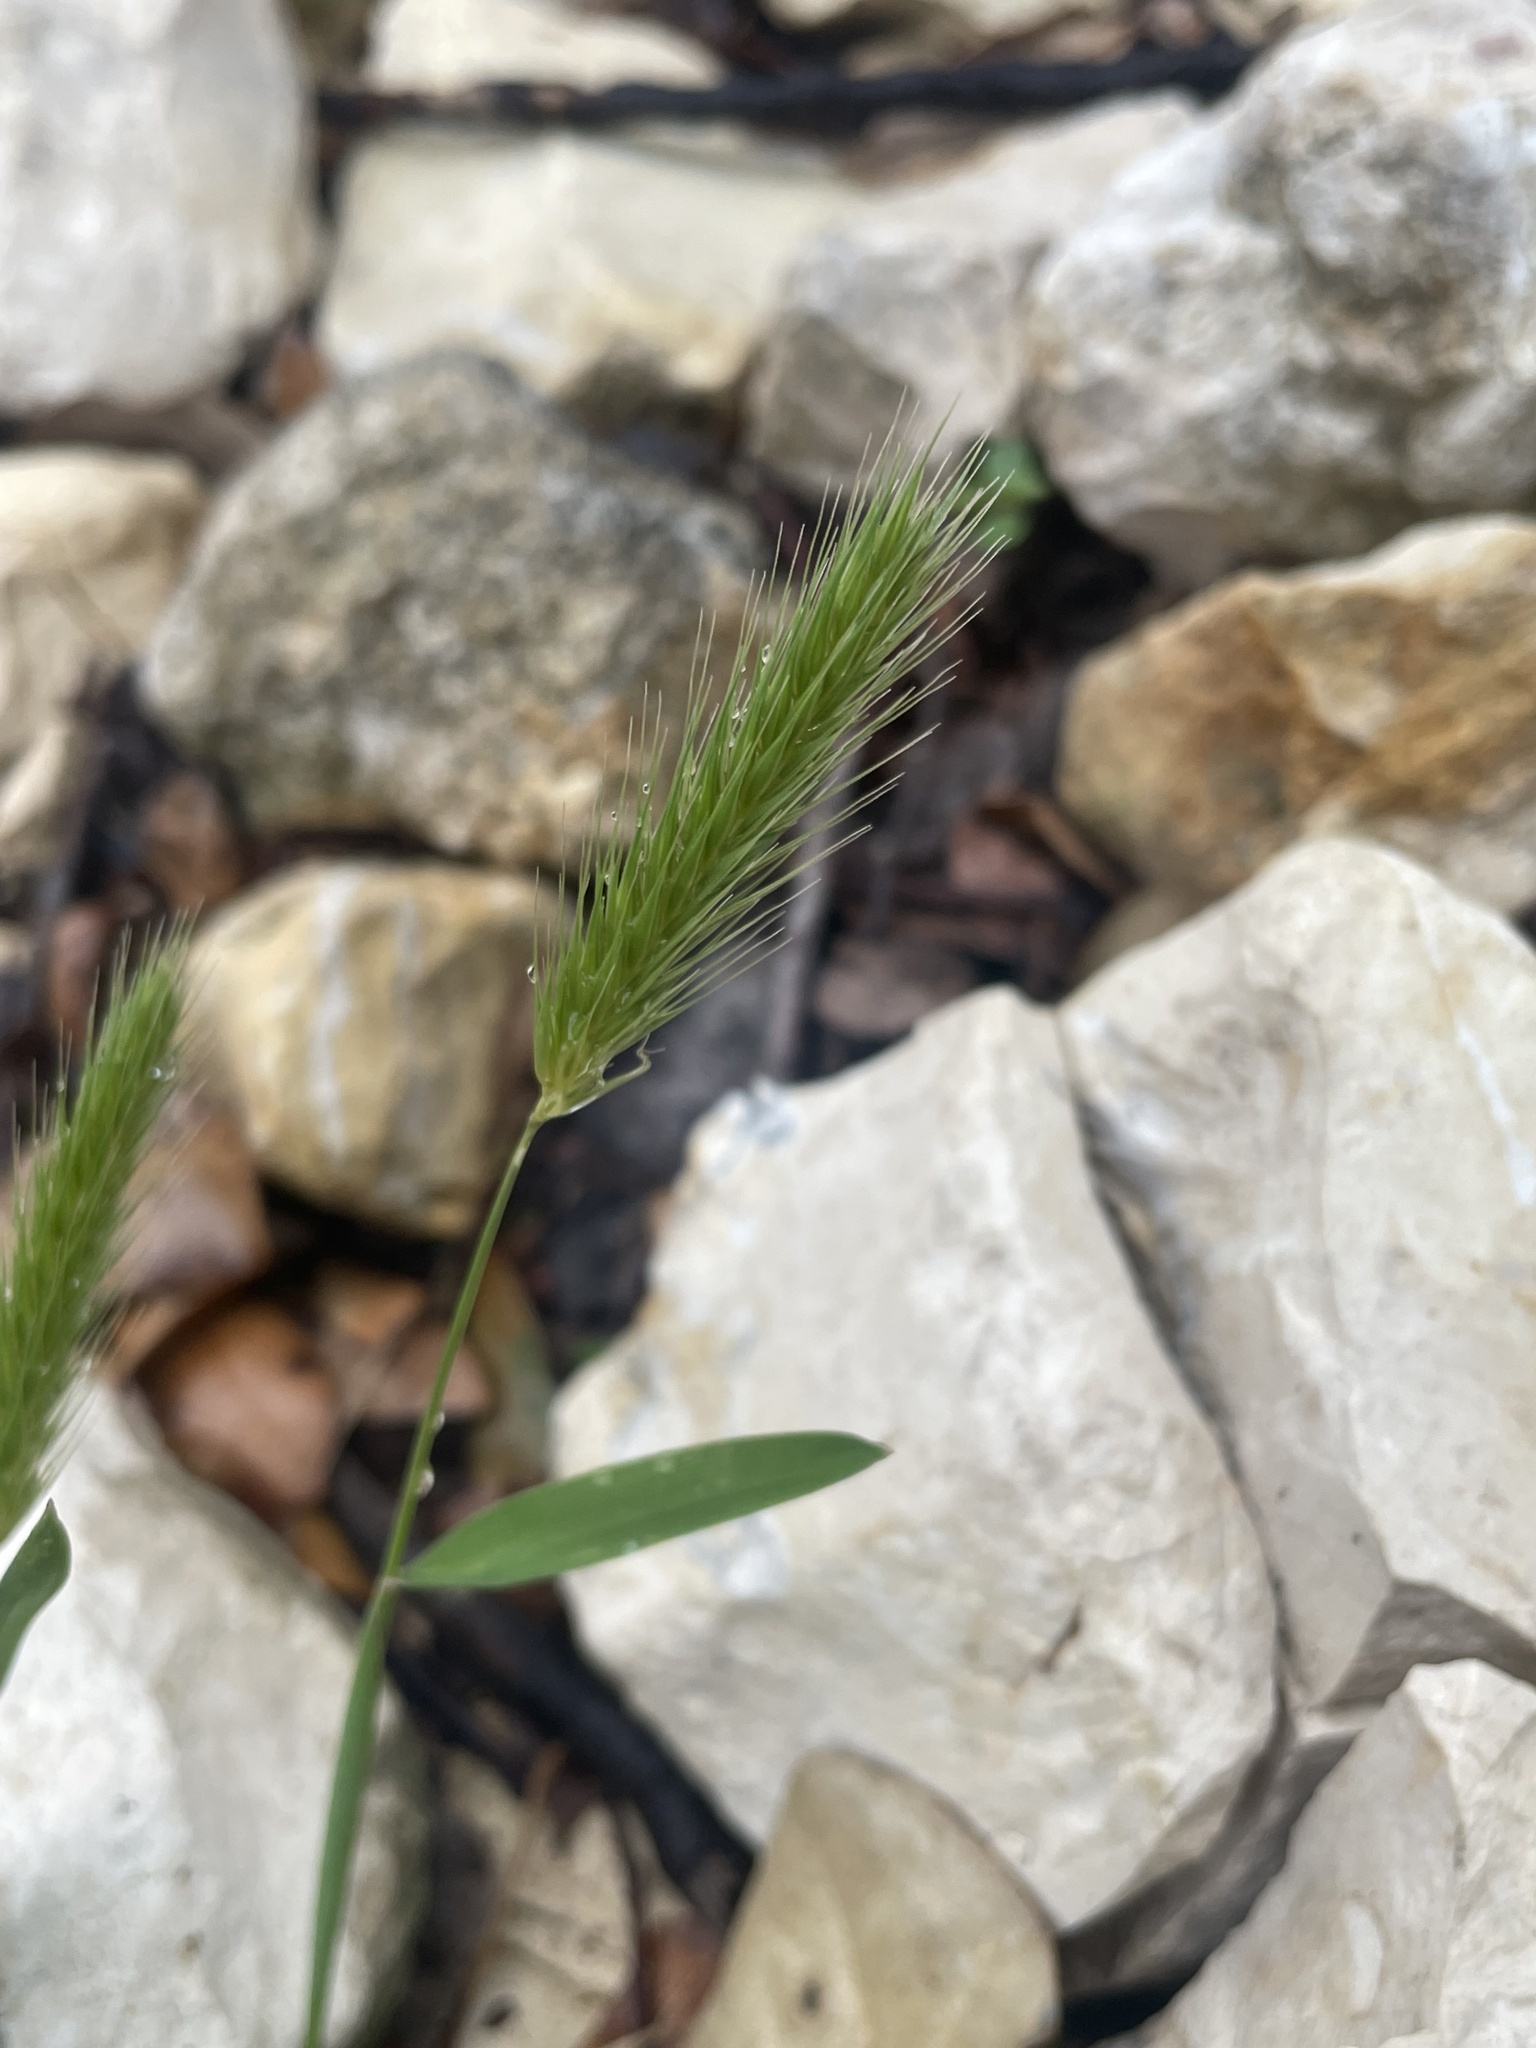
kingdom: Plantae
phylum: Tracheophyta
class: Liliopsida
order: Poales
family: Poaceae
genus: Hordeum
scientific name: Hordeum pusillum
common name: Little barley
